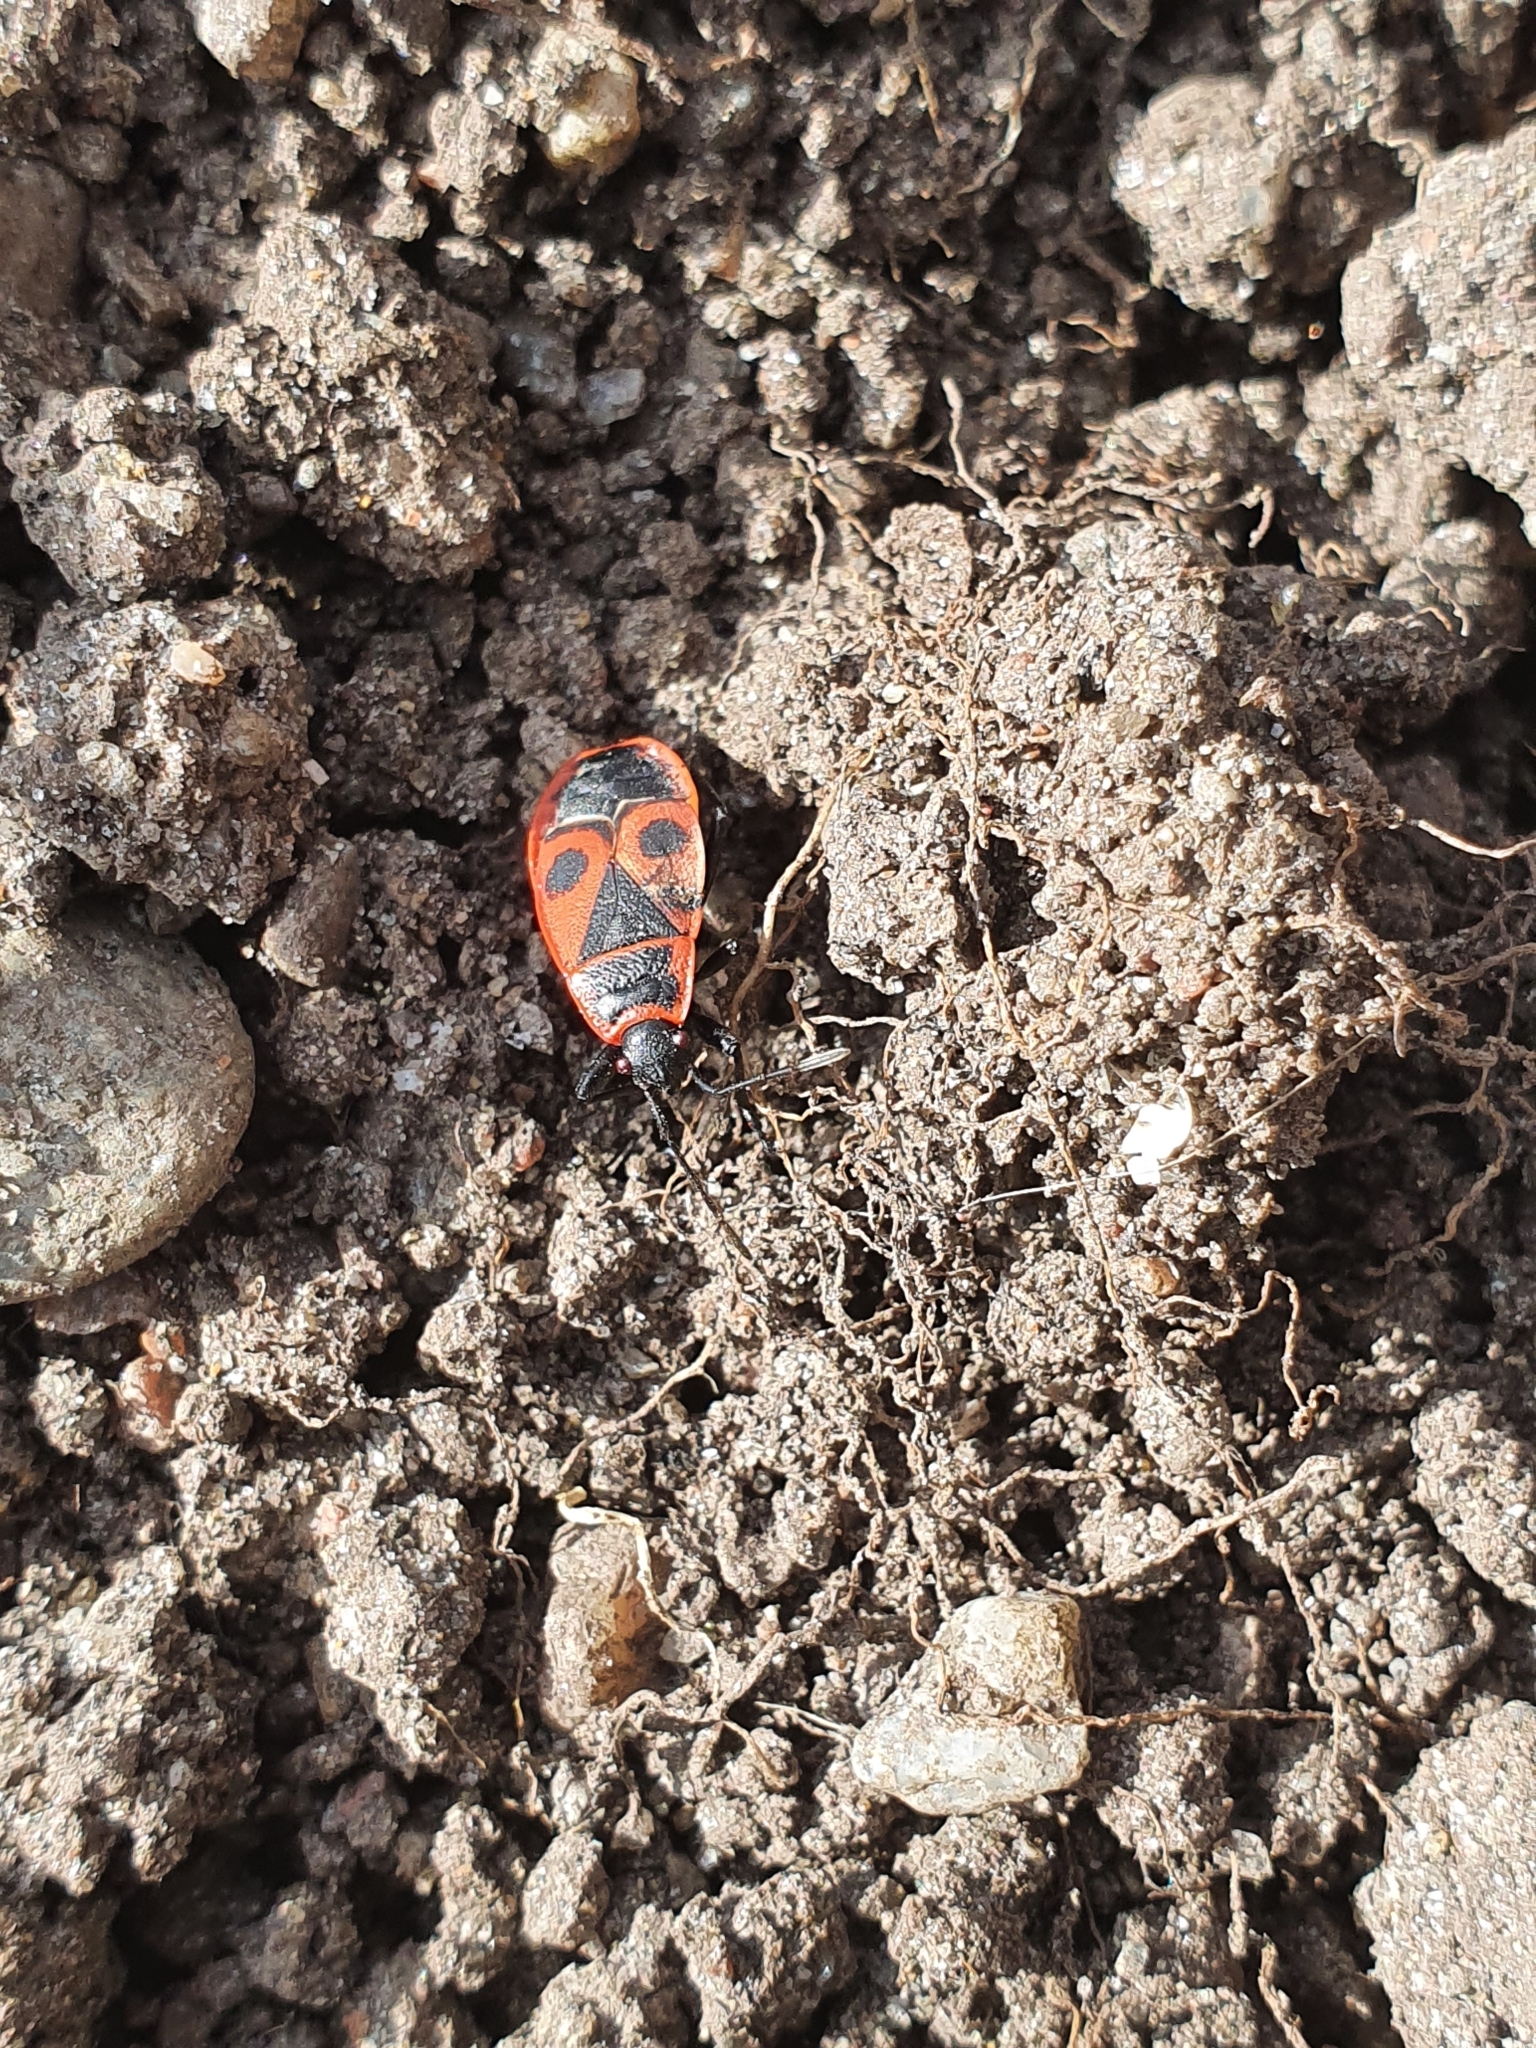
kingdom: Animalia
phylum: Arthropoda
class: Insecta
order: Hemiptera
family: Pyrrhocoridae
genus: Pyrrhocoris
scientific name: Pyrrhocoris apterus
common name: Firebug
